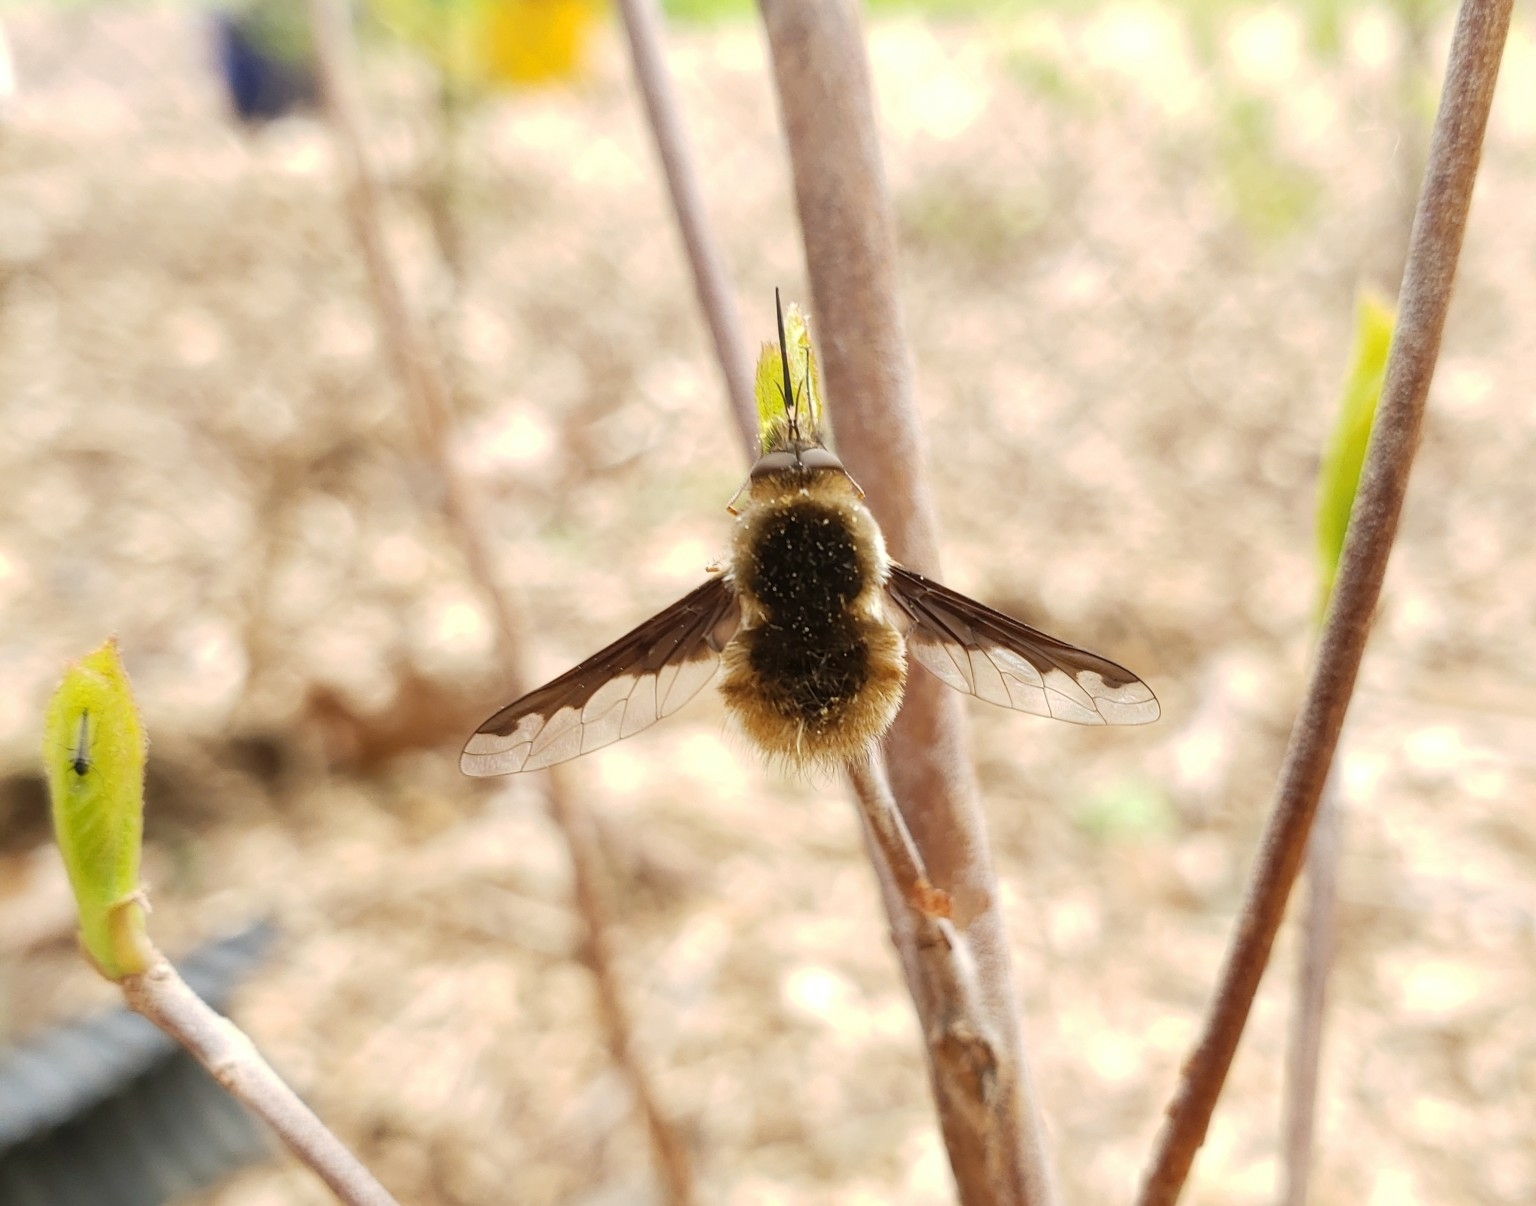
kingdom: Animalia
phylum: Arthropoda
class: Insecta
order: Diptera
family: Bombyliidae
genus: Bombylius
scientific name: Bombylius major
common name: Bee fly
